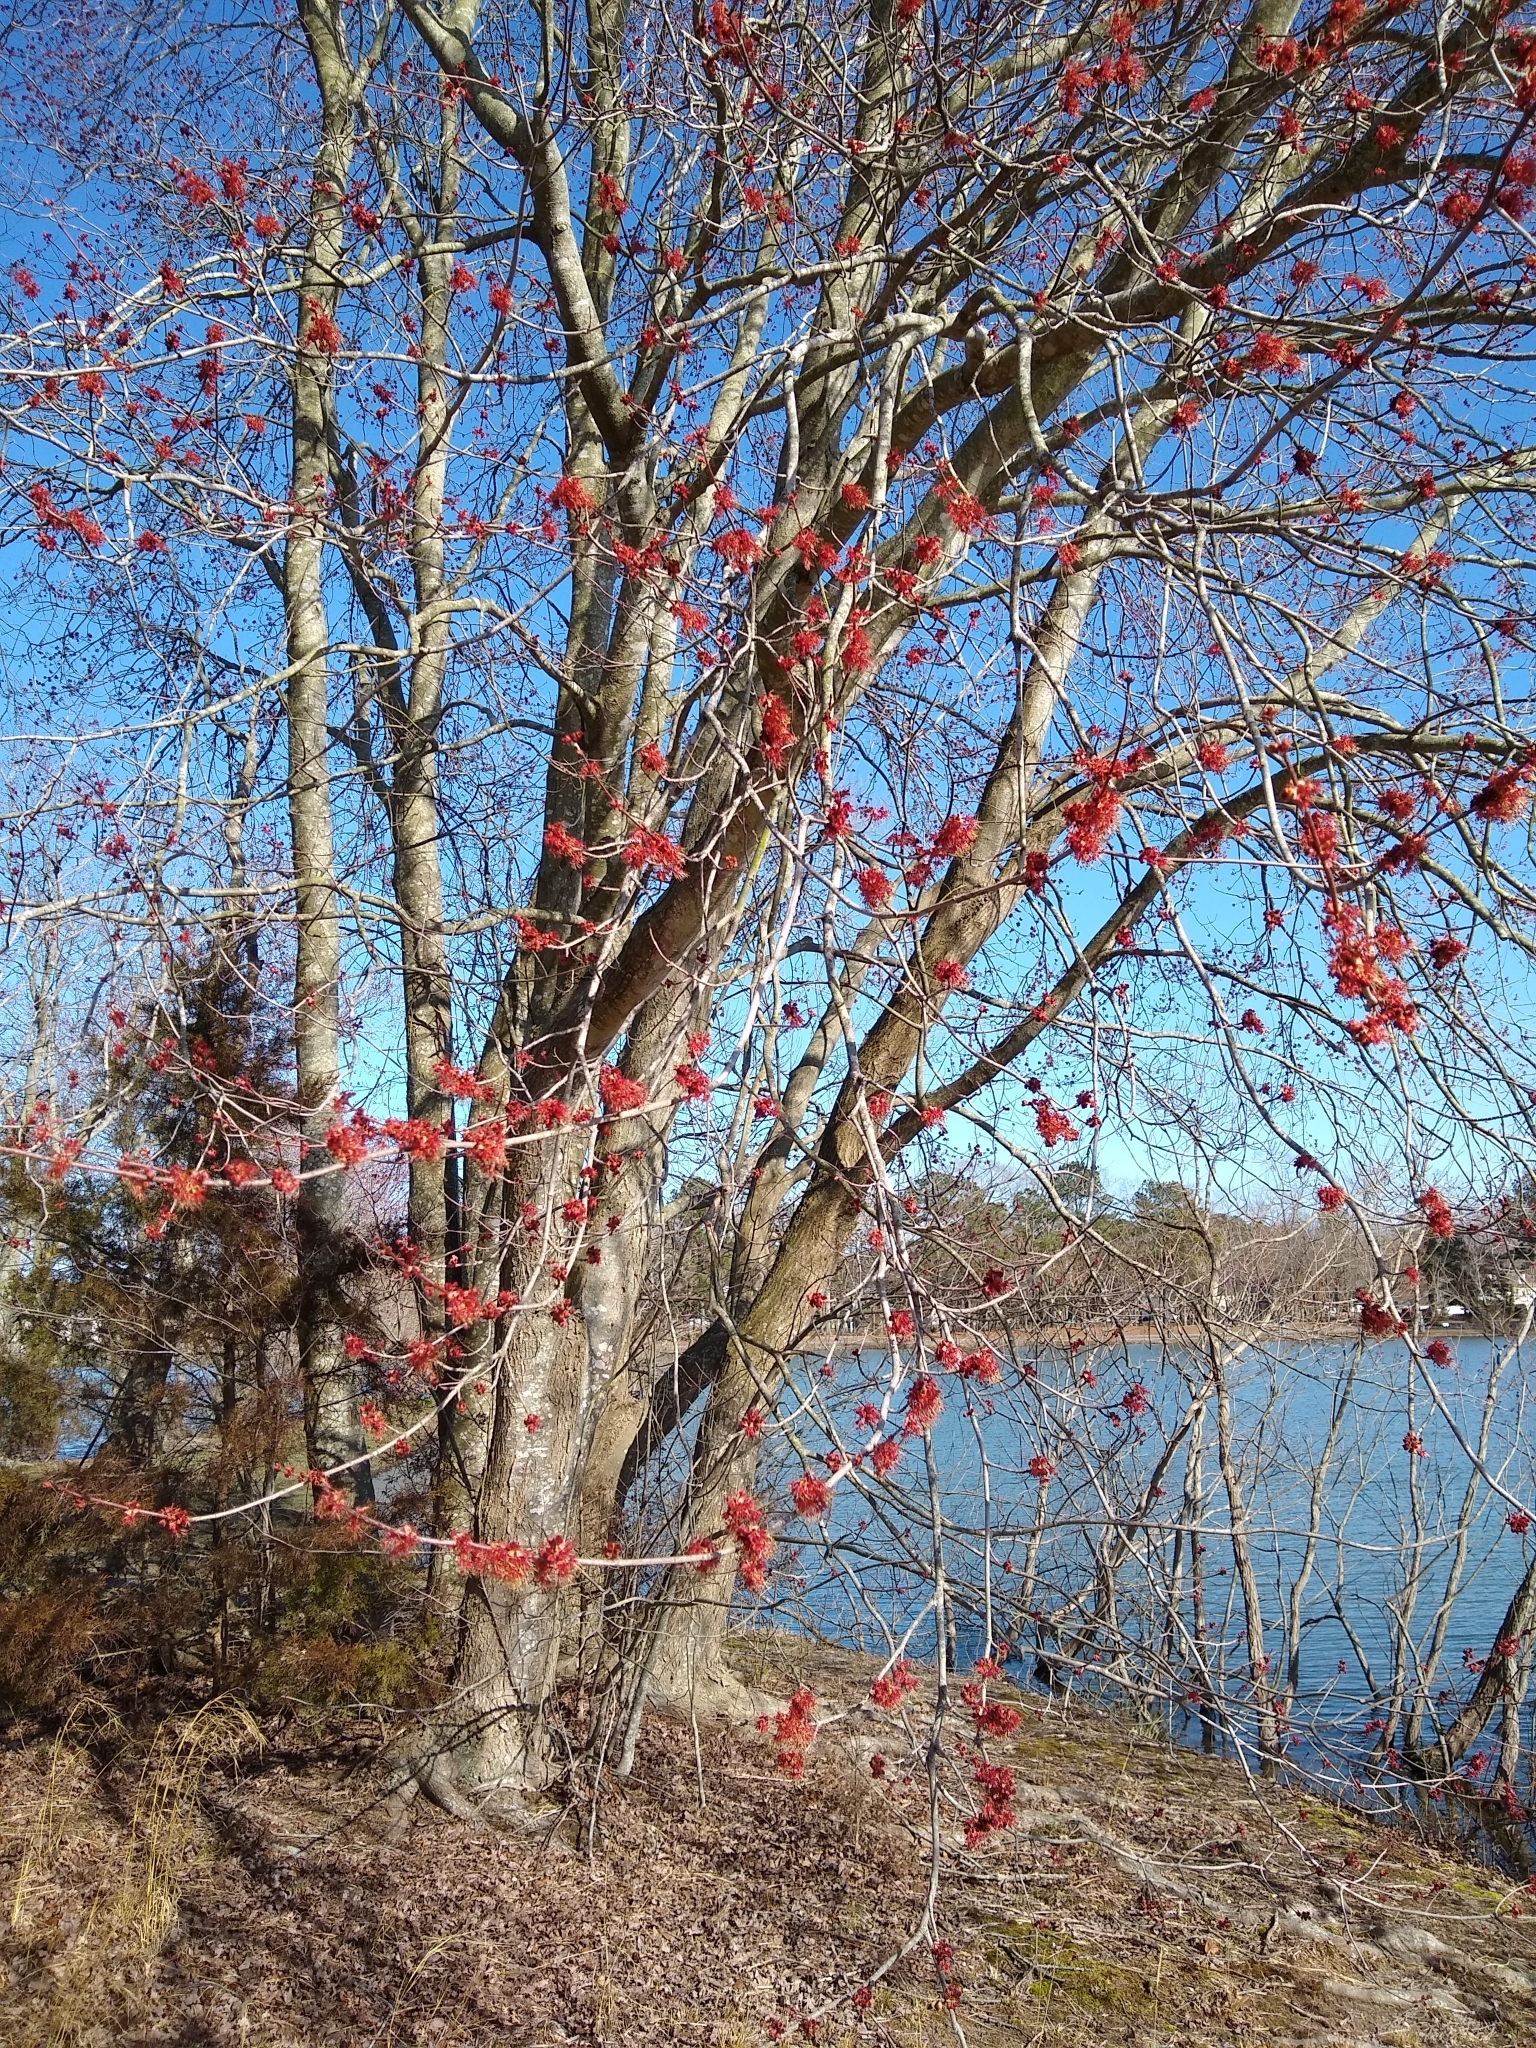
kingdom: Plantae
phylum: Tracheophyta
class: Magnoliopsida
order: Sapindales
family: Sapindaceae
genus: Acer
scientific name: Acer rubrum
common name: Red maple
